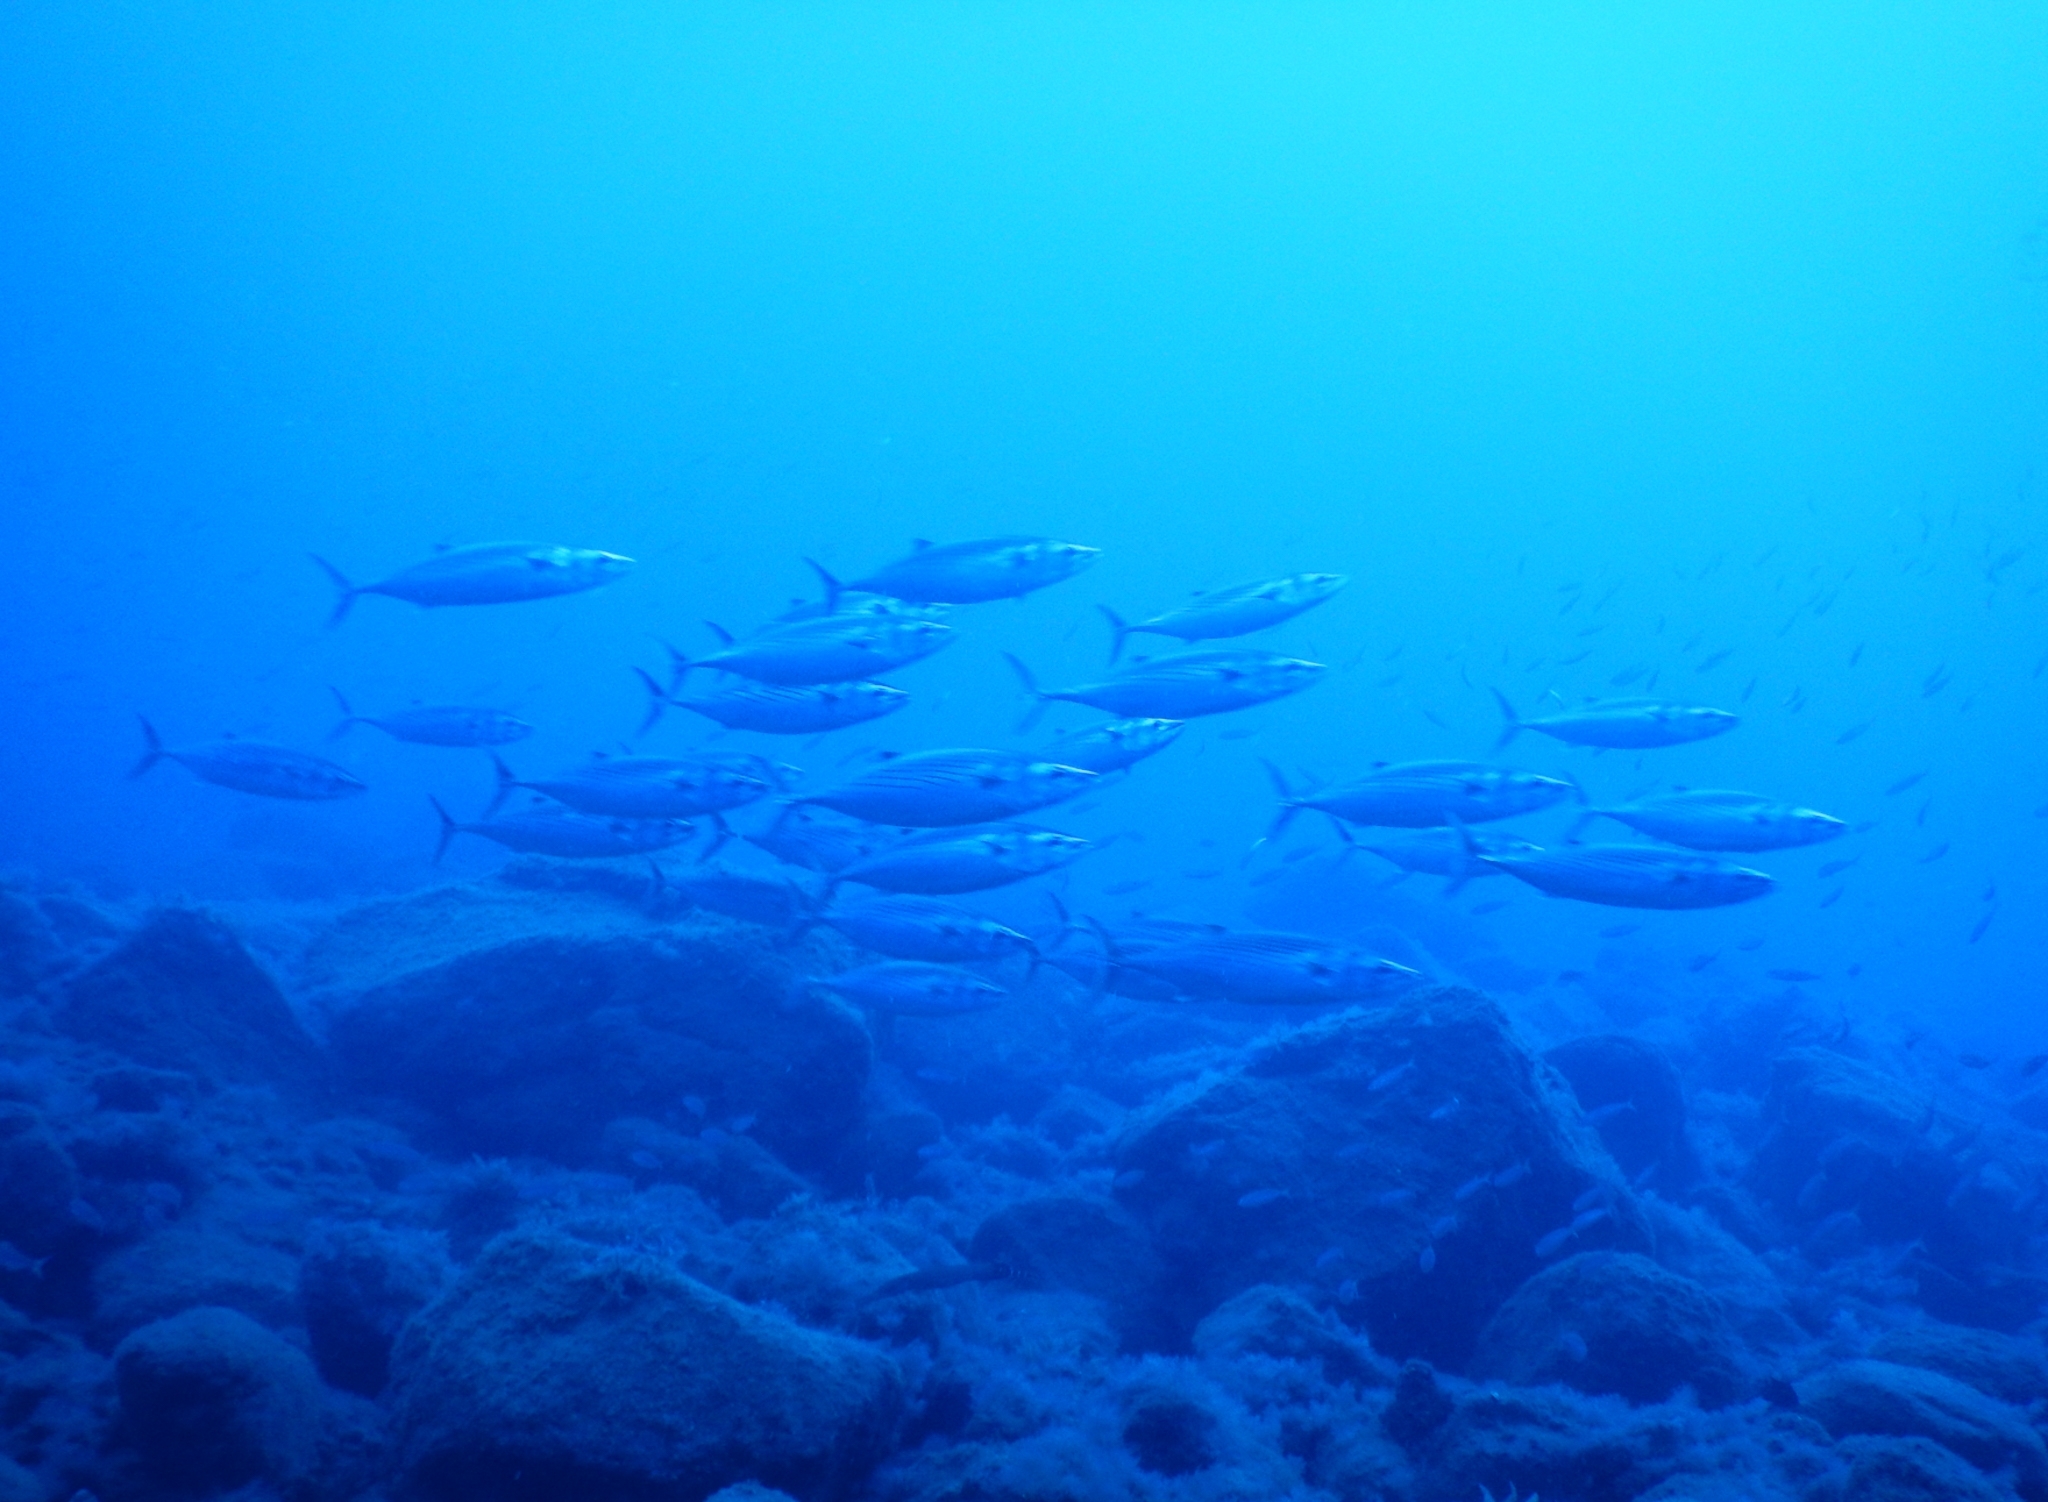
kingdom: Animalia
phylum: Chordata
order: Perciformes
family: Scombridae
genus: Sarda
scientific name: Sarda sarda
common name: Atlantic bonito
